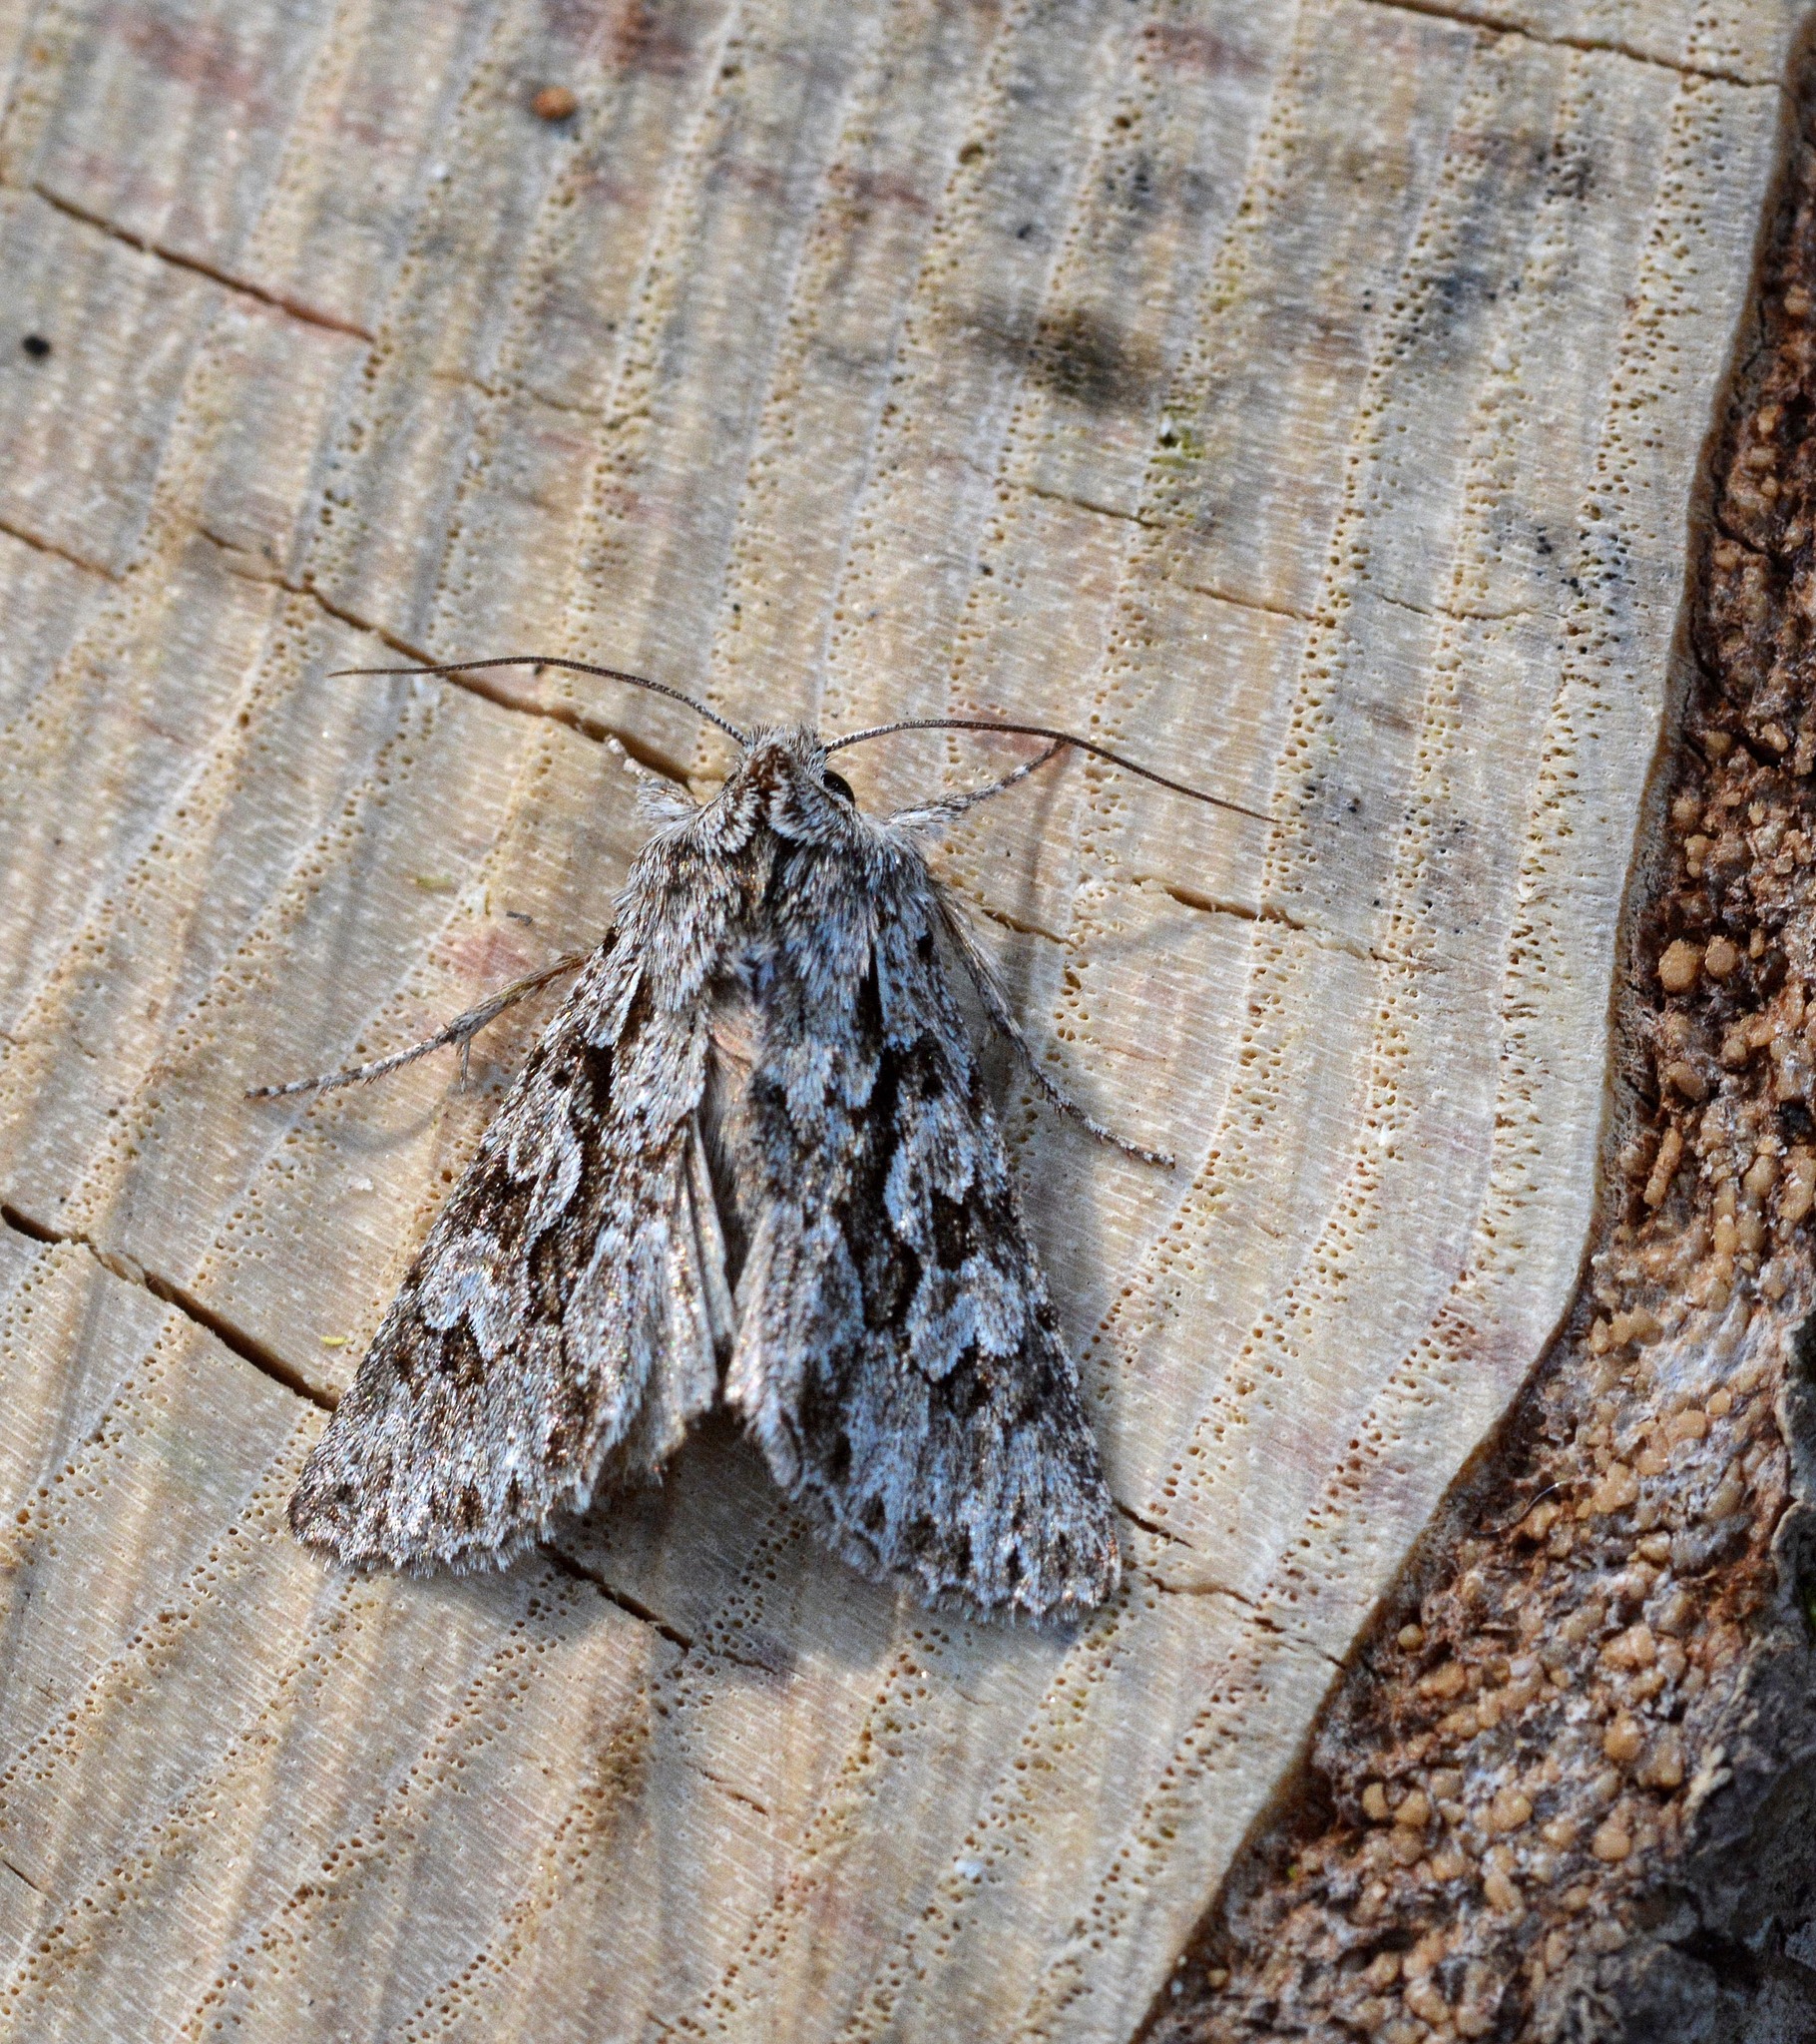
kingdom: Animalia
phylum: Arthropoda
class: Insecta
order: Lepidoptera
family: Noctuidae
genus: Xylocampa
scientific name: Xylocampa areola
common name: Early grey
